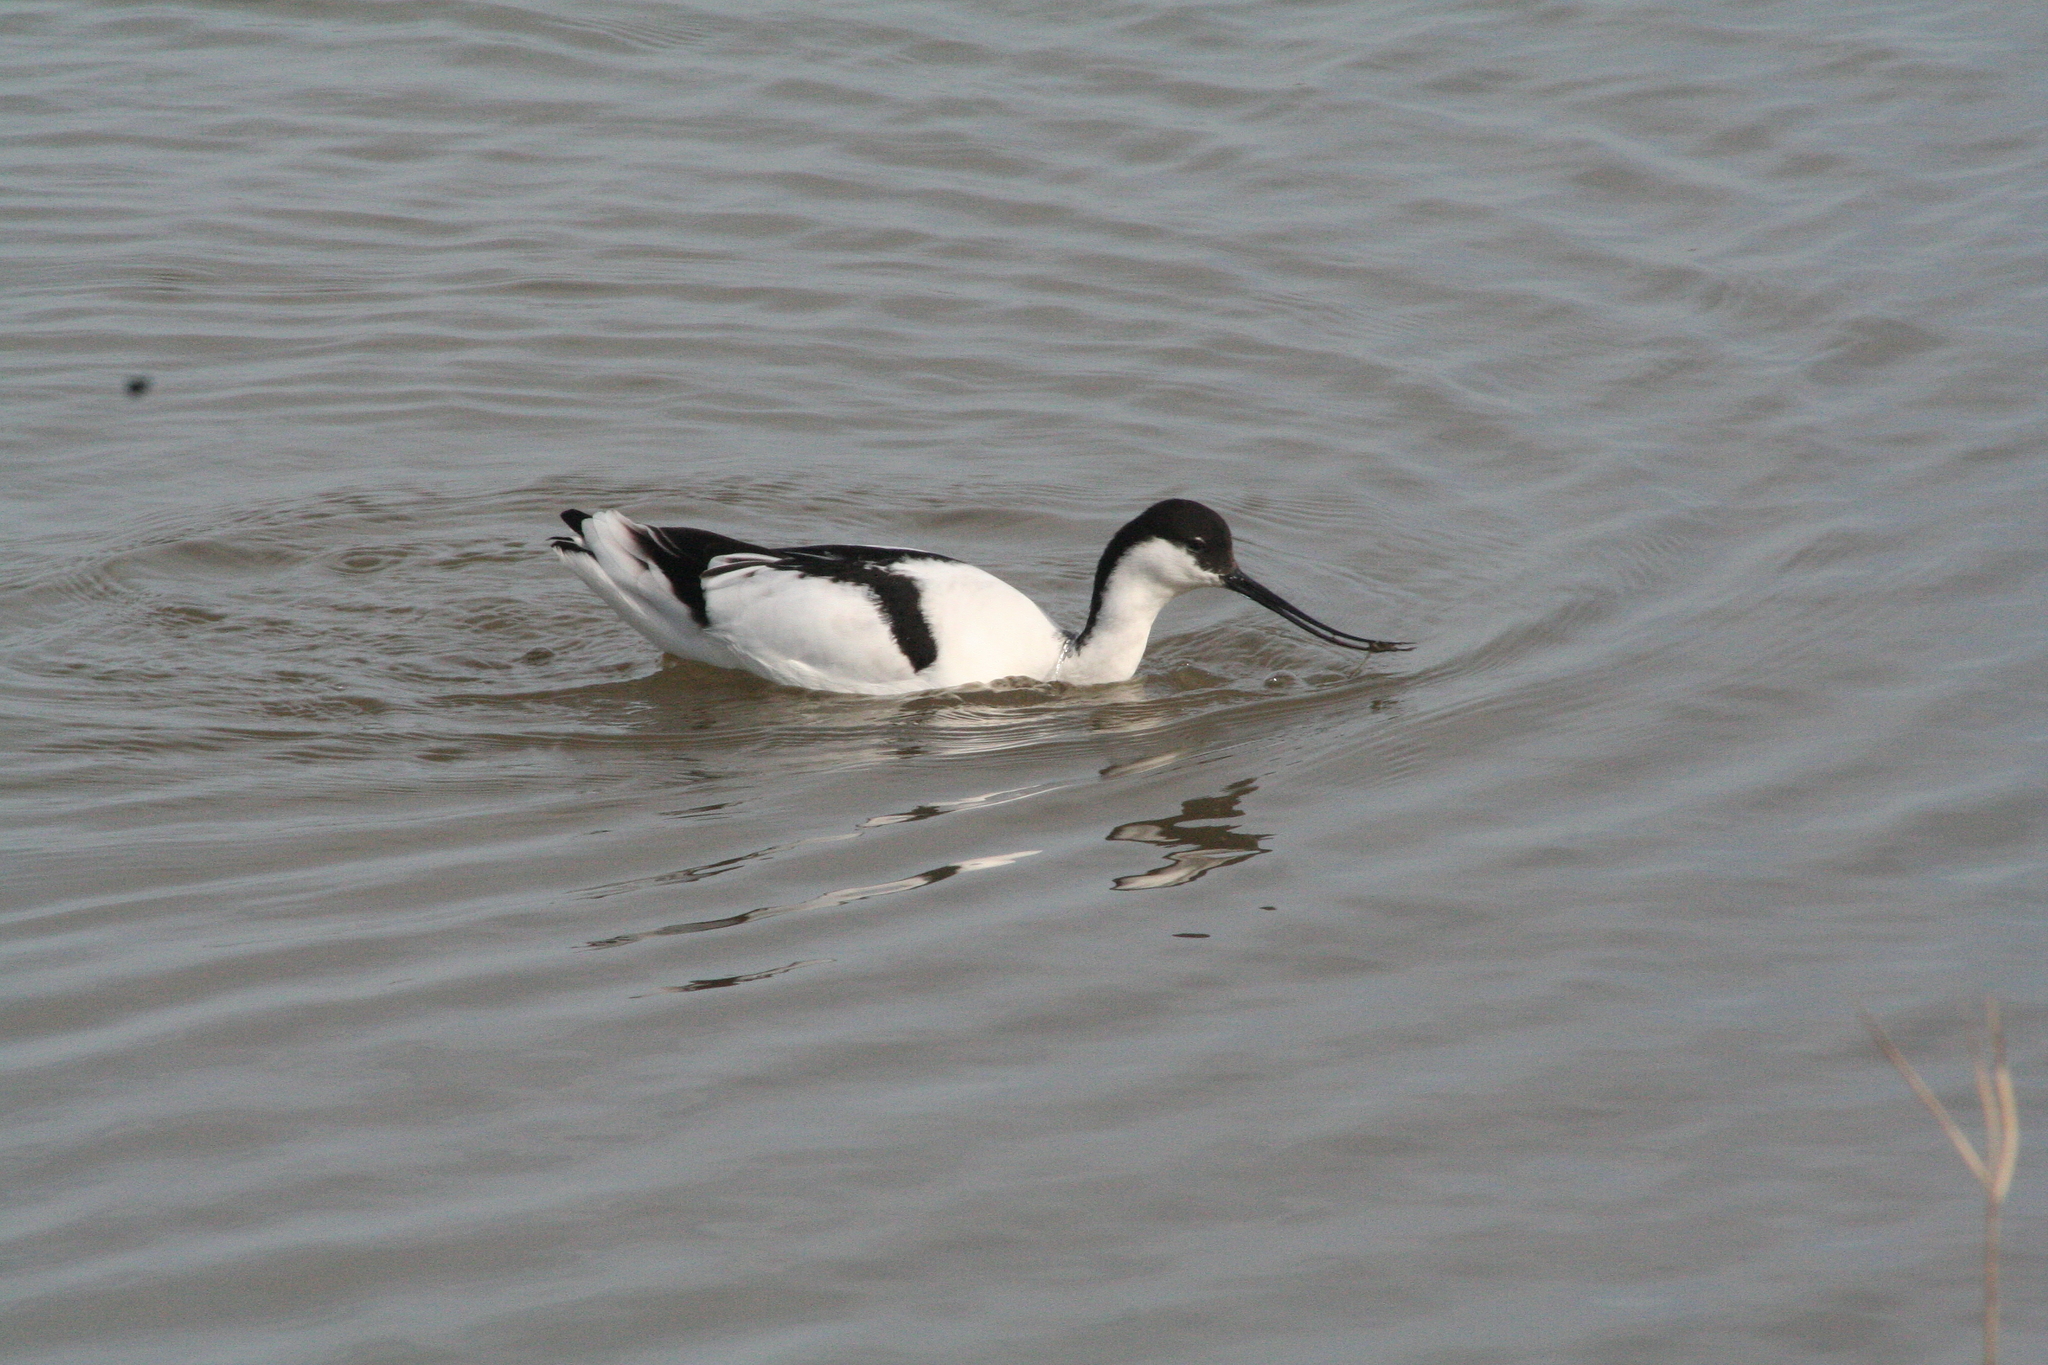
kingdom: Animalia
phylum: Chordata
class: Aves
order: Charadriiformes
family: Recurvirostridae
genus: Recurvirostra
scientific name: Recurvirostra avosetta
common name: Pied avocet
